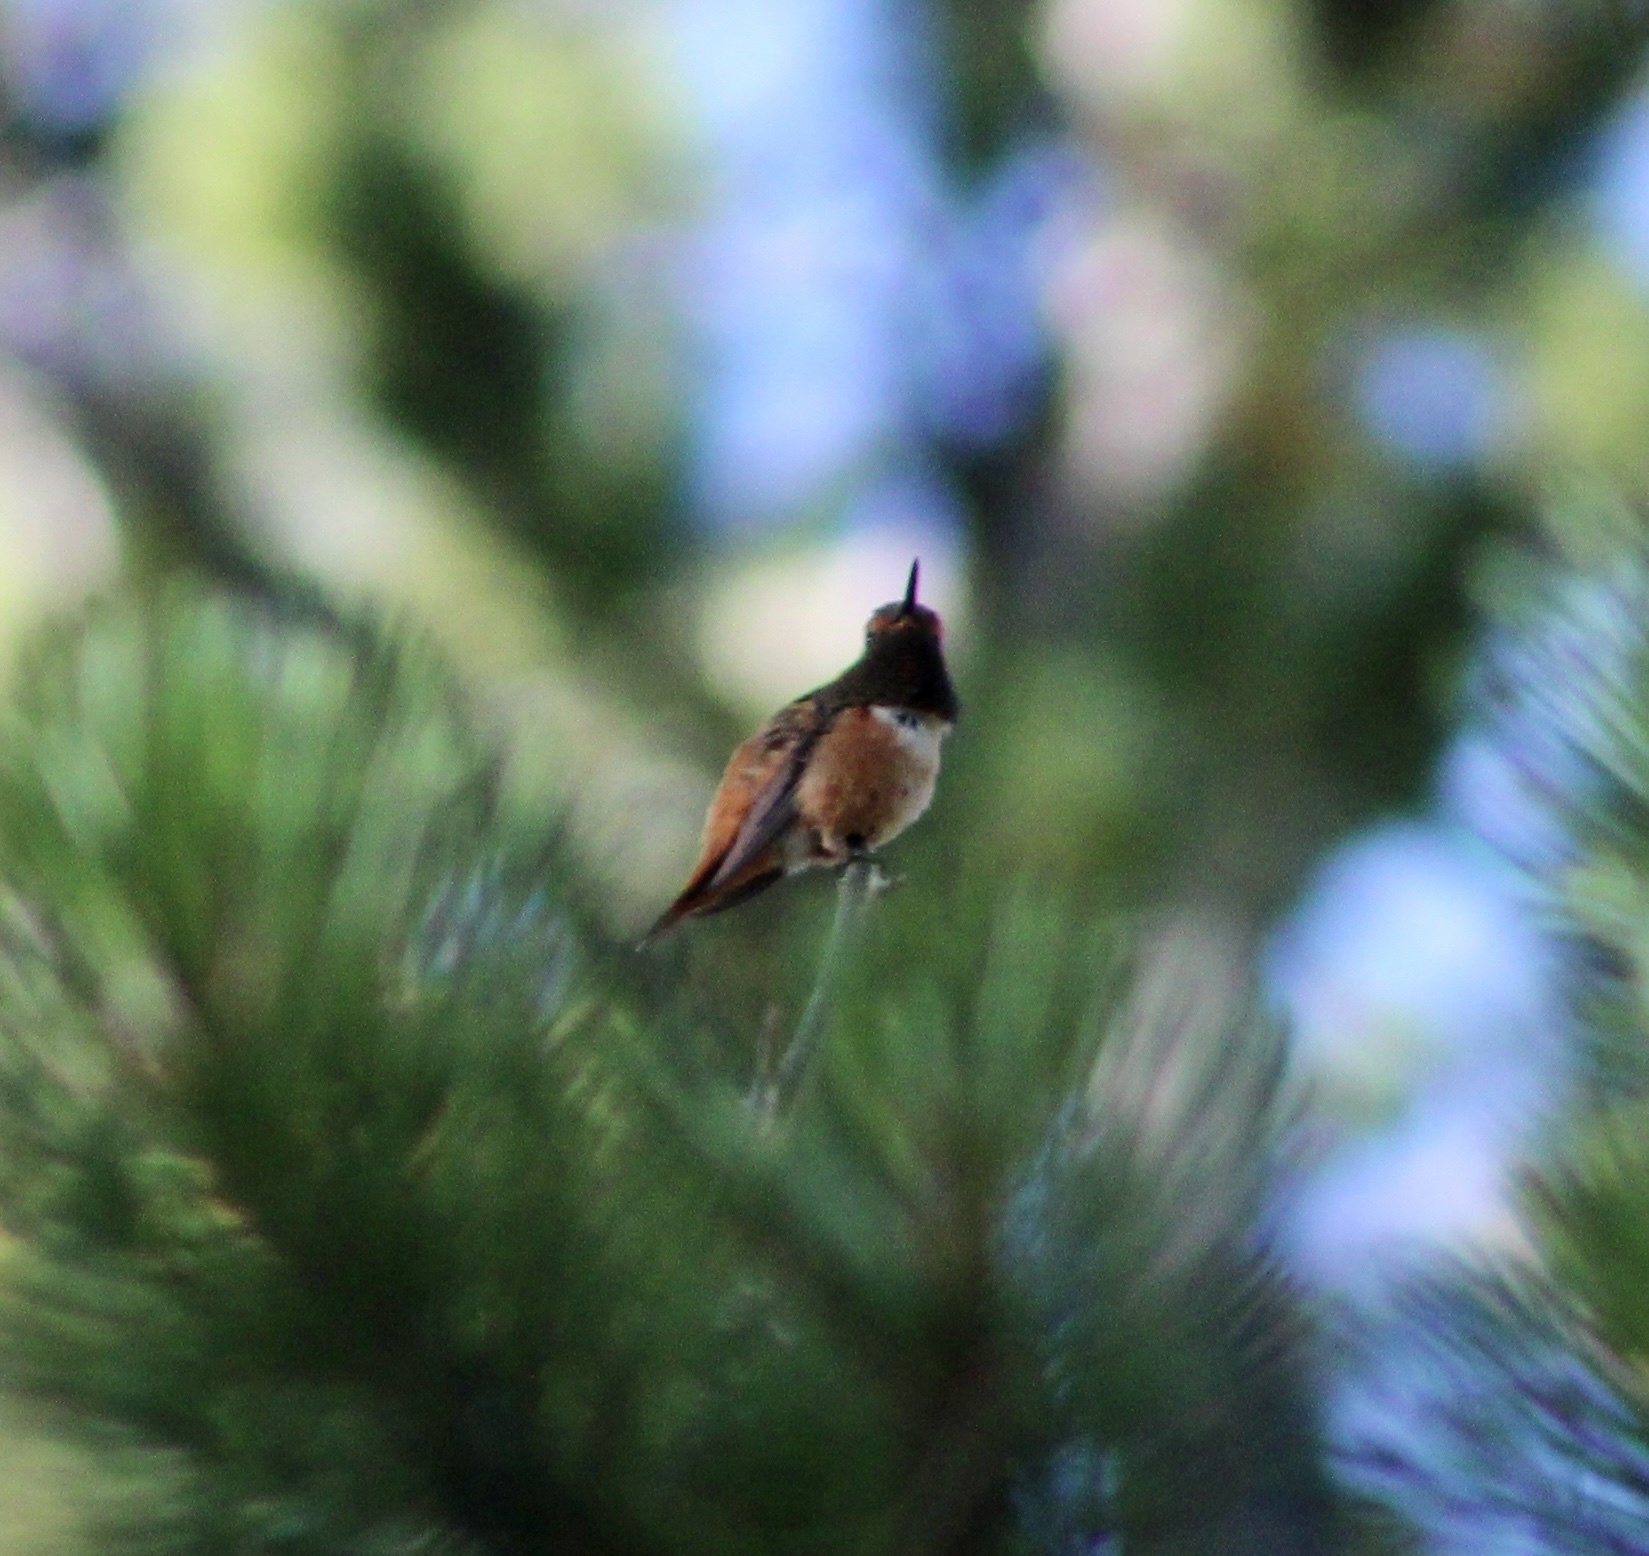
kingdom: Animalia
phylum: Chordata
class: Aves
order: Apodiformes
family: Trochilidae
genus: Selasphorus
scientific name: Selasphorus rufus
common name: Rufous hummingbird
